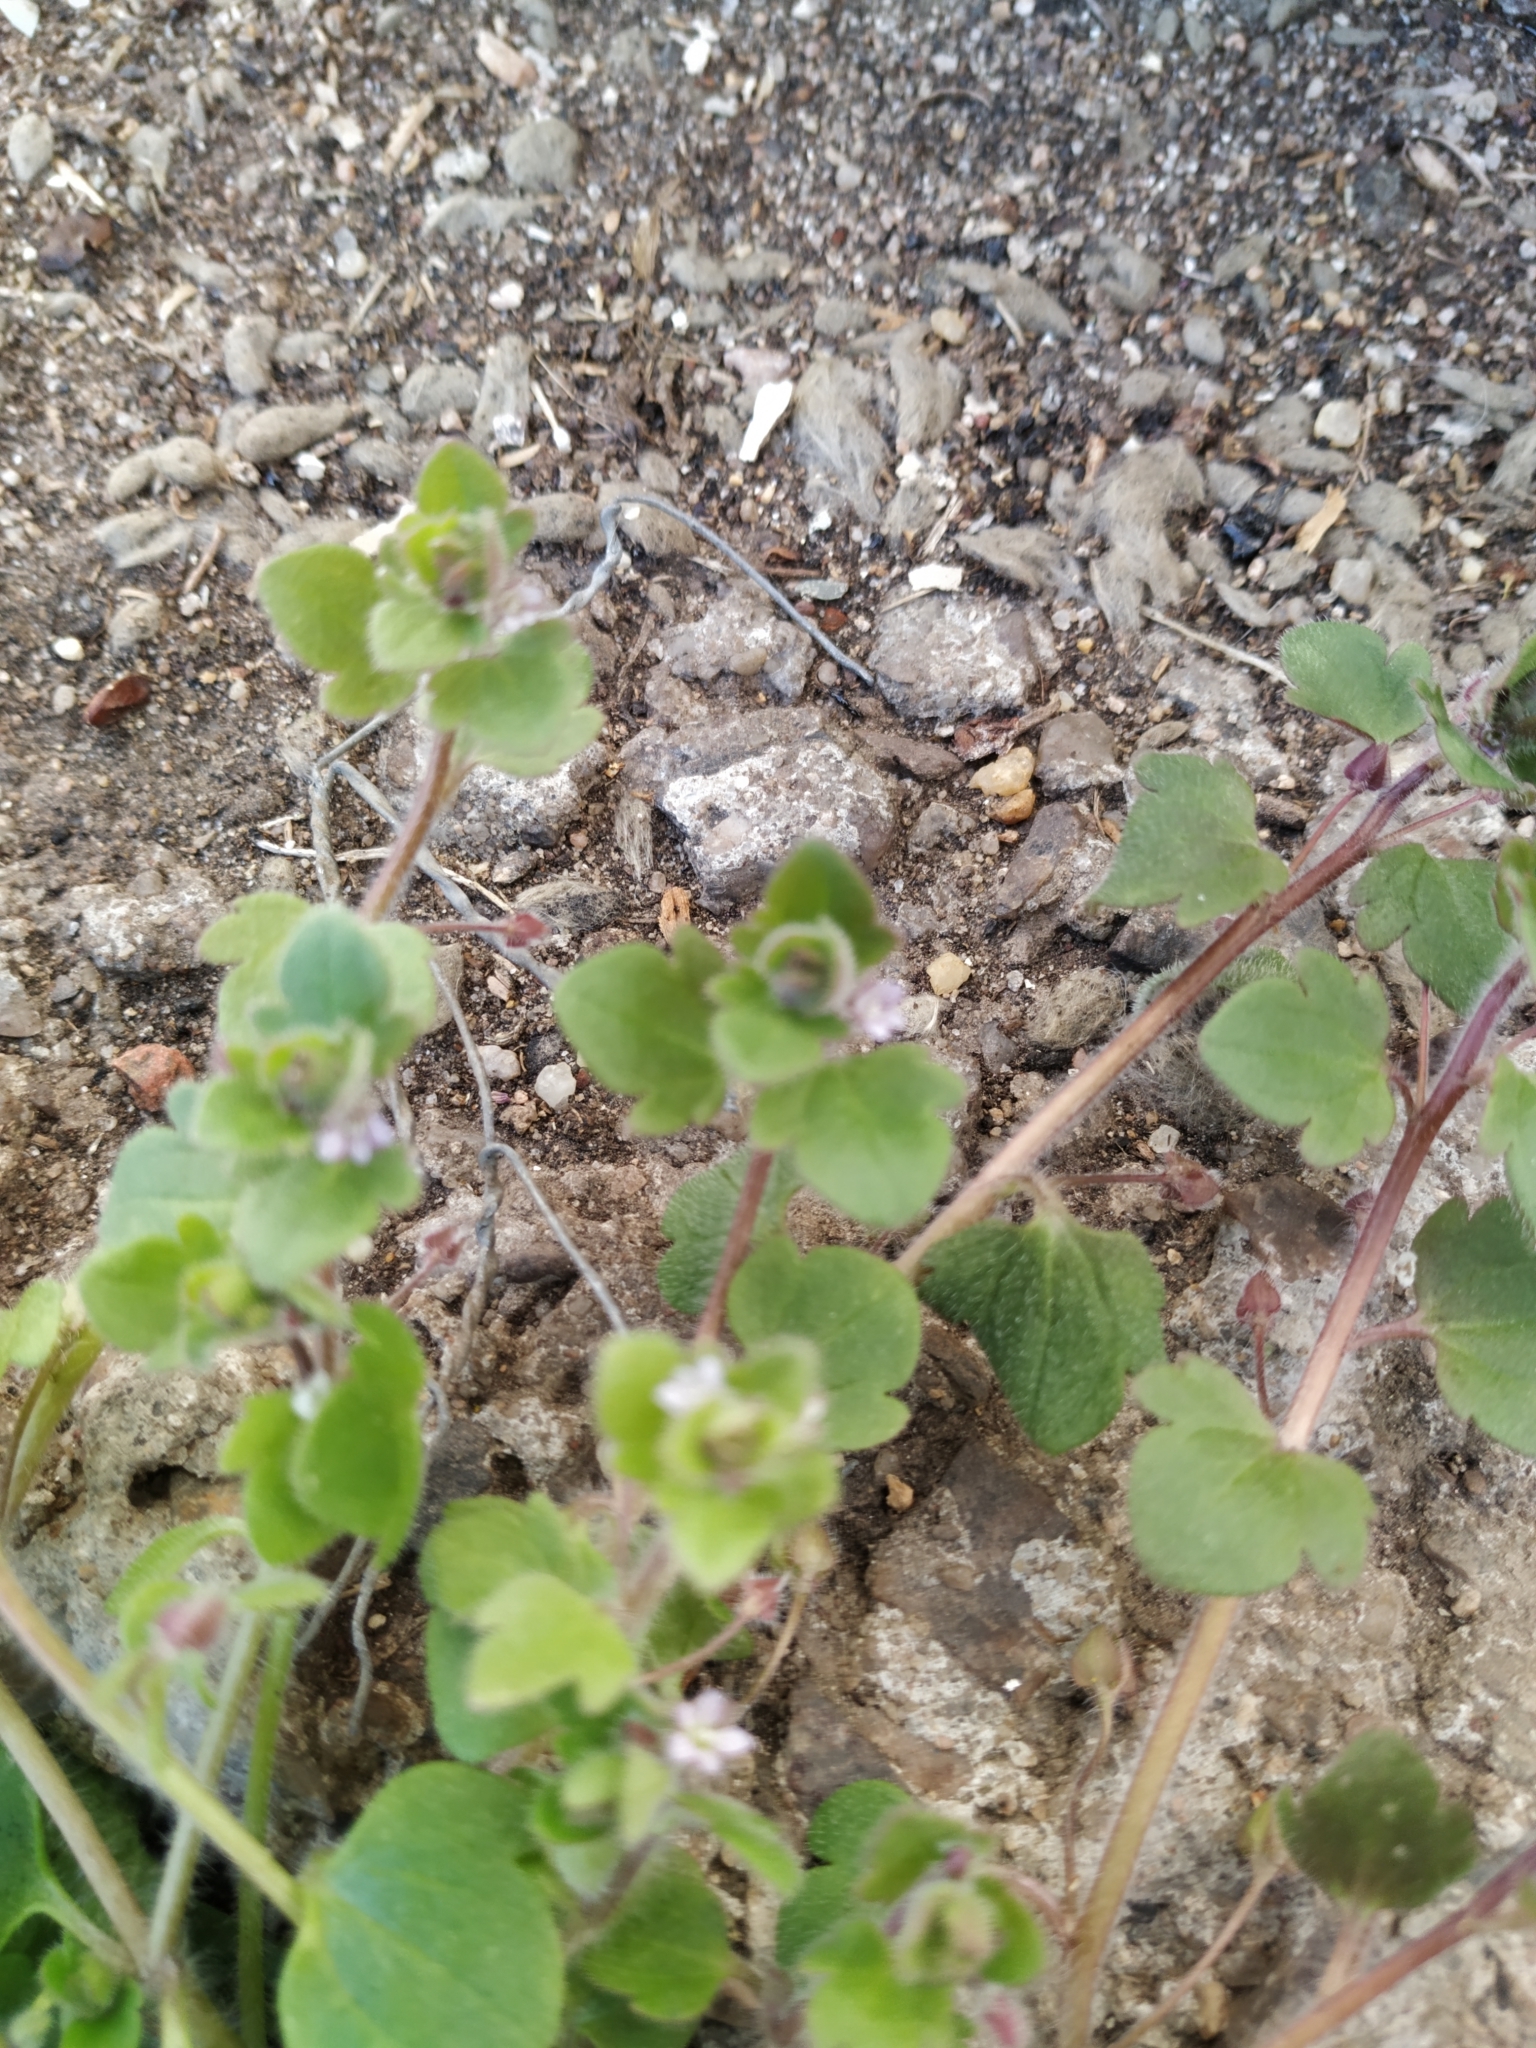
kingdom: Plantae
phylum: Tracheophyta
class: Magnoliopsida
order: Lamiales
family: Plantaginaceae
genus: Veronica
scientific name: Veronica sublobata
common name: False ivy-leaved speedwell
